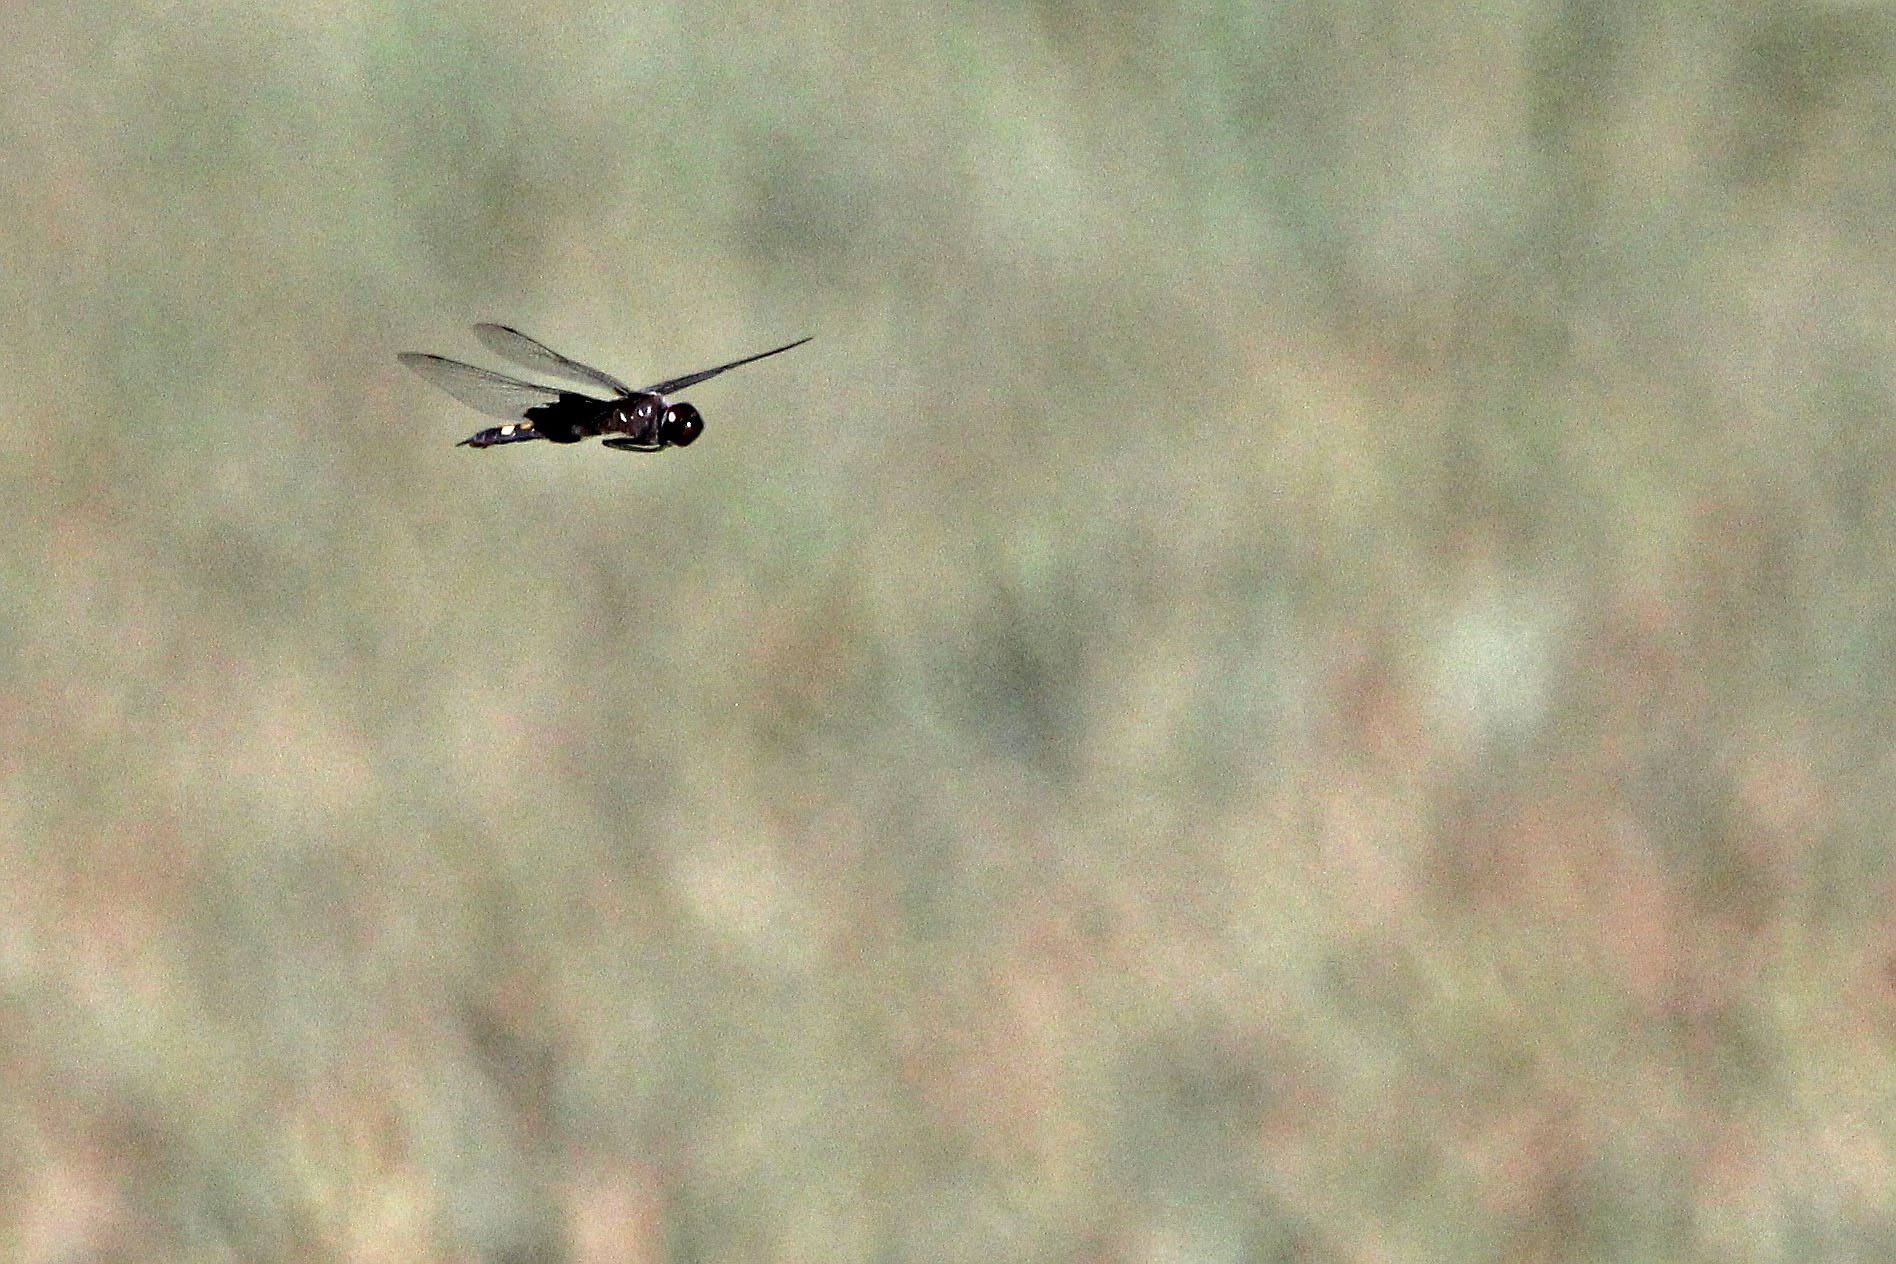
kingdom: Animalia
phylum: Arthropoda
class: Insecta
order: Odonata
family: Libellulidae
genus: Tramea
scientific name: Tramea lacerata
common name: Black saddlebags
